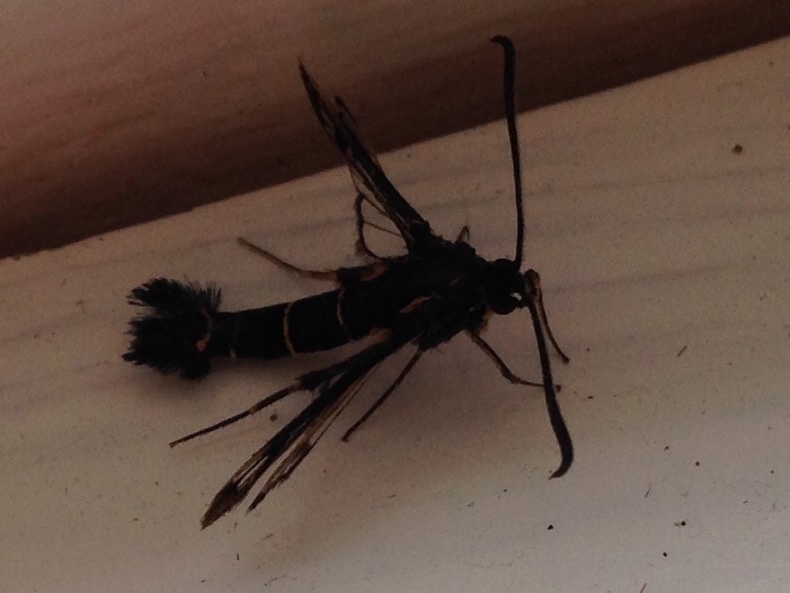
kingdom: Animalia
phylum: Arthropoda
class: Insecta
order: Lepidoptera
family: Sesiidae
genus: Synanthedon
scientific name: Synanthedon tipuliformis
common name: Currant clearwing
